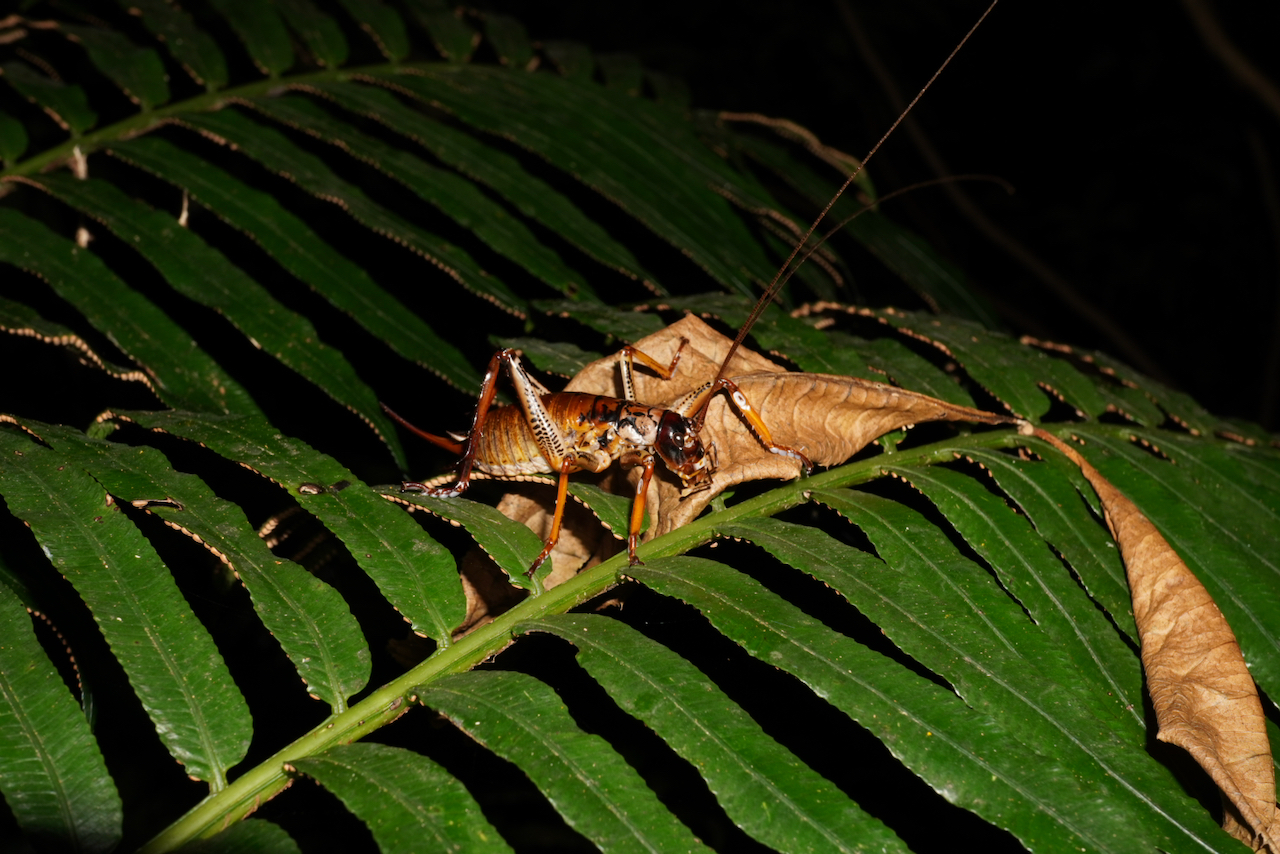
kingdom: Animalia
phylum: Arthropoda
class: Insecta
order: Orthoptera
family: Anostostomatidae
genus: Hemideina
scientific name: Hemideina thoracica
